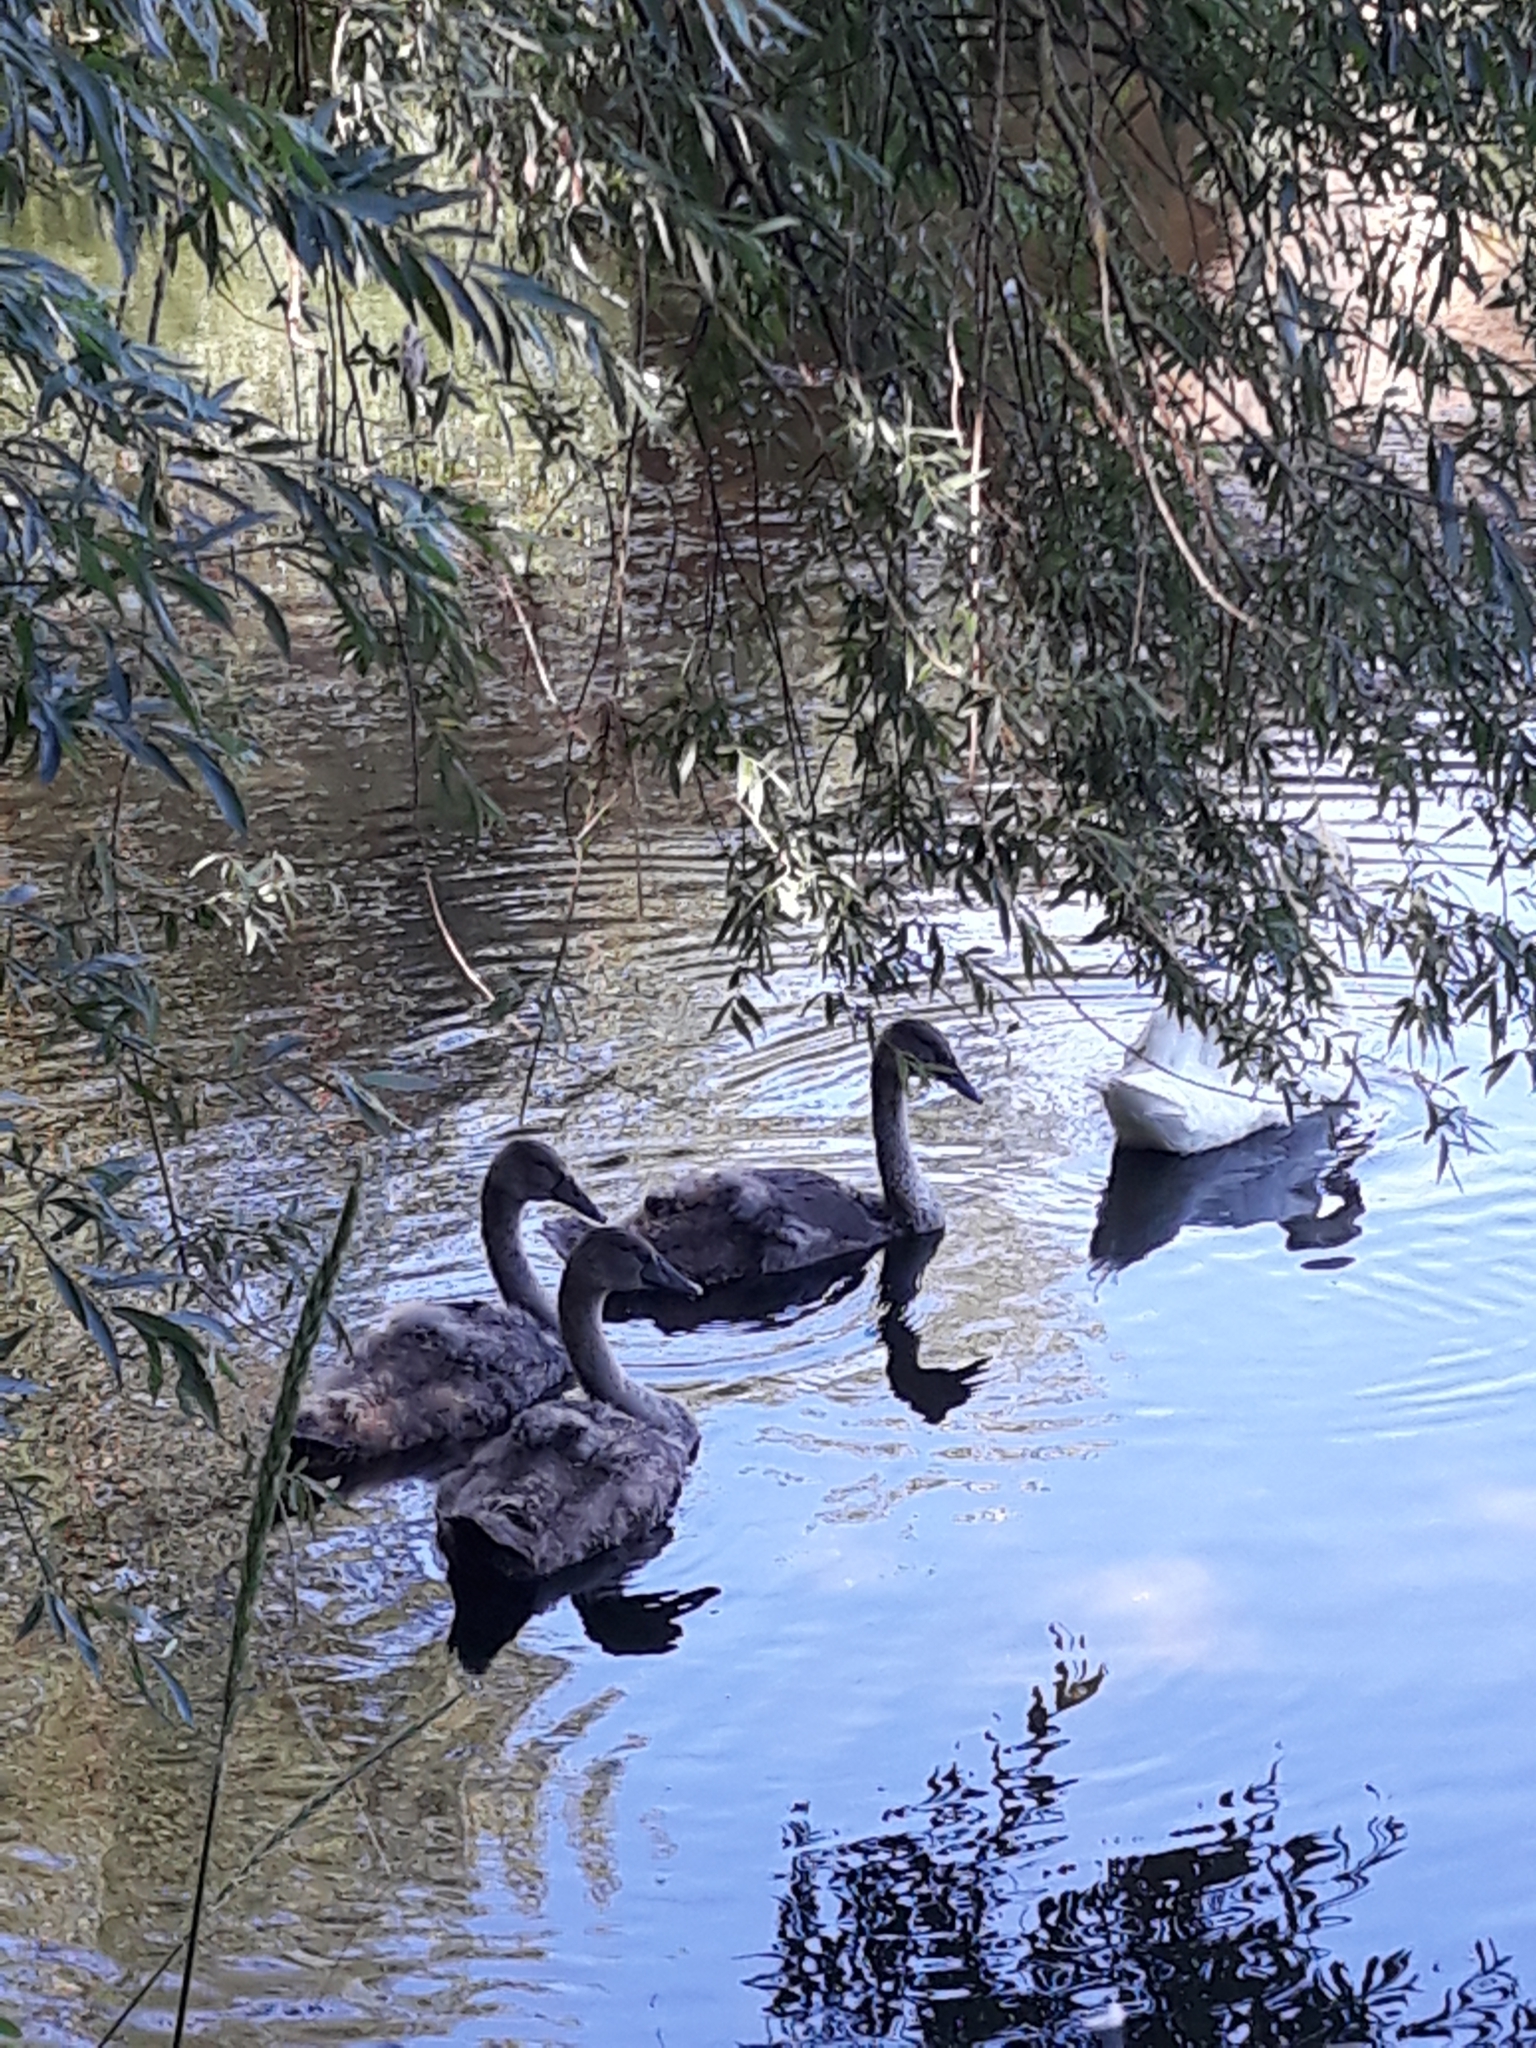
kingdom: Animalia
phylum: Chordata
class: Aves
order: Anseriformes
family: Anatidae
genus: Cygnus
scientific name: Cygnus olor
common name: Mute swan
